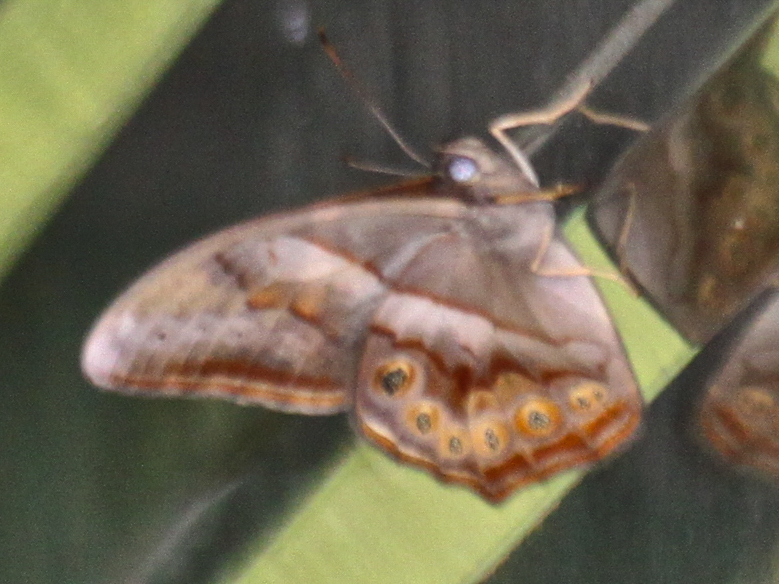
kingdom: Animalia
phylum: Arthropoda
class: Insecta
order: Lepidoptera
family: Nymphalidae
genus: Lethe
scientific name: Lethe minerva
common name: Banded red forester
